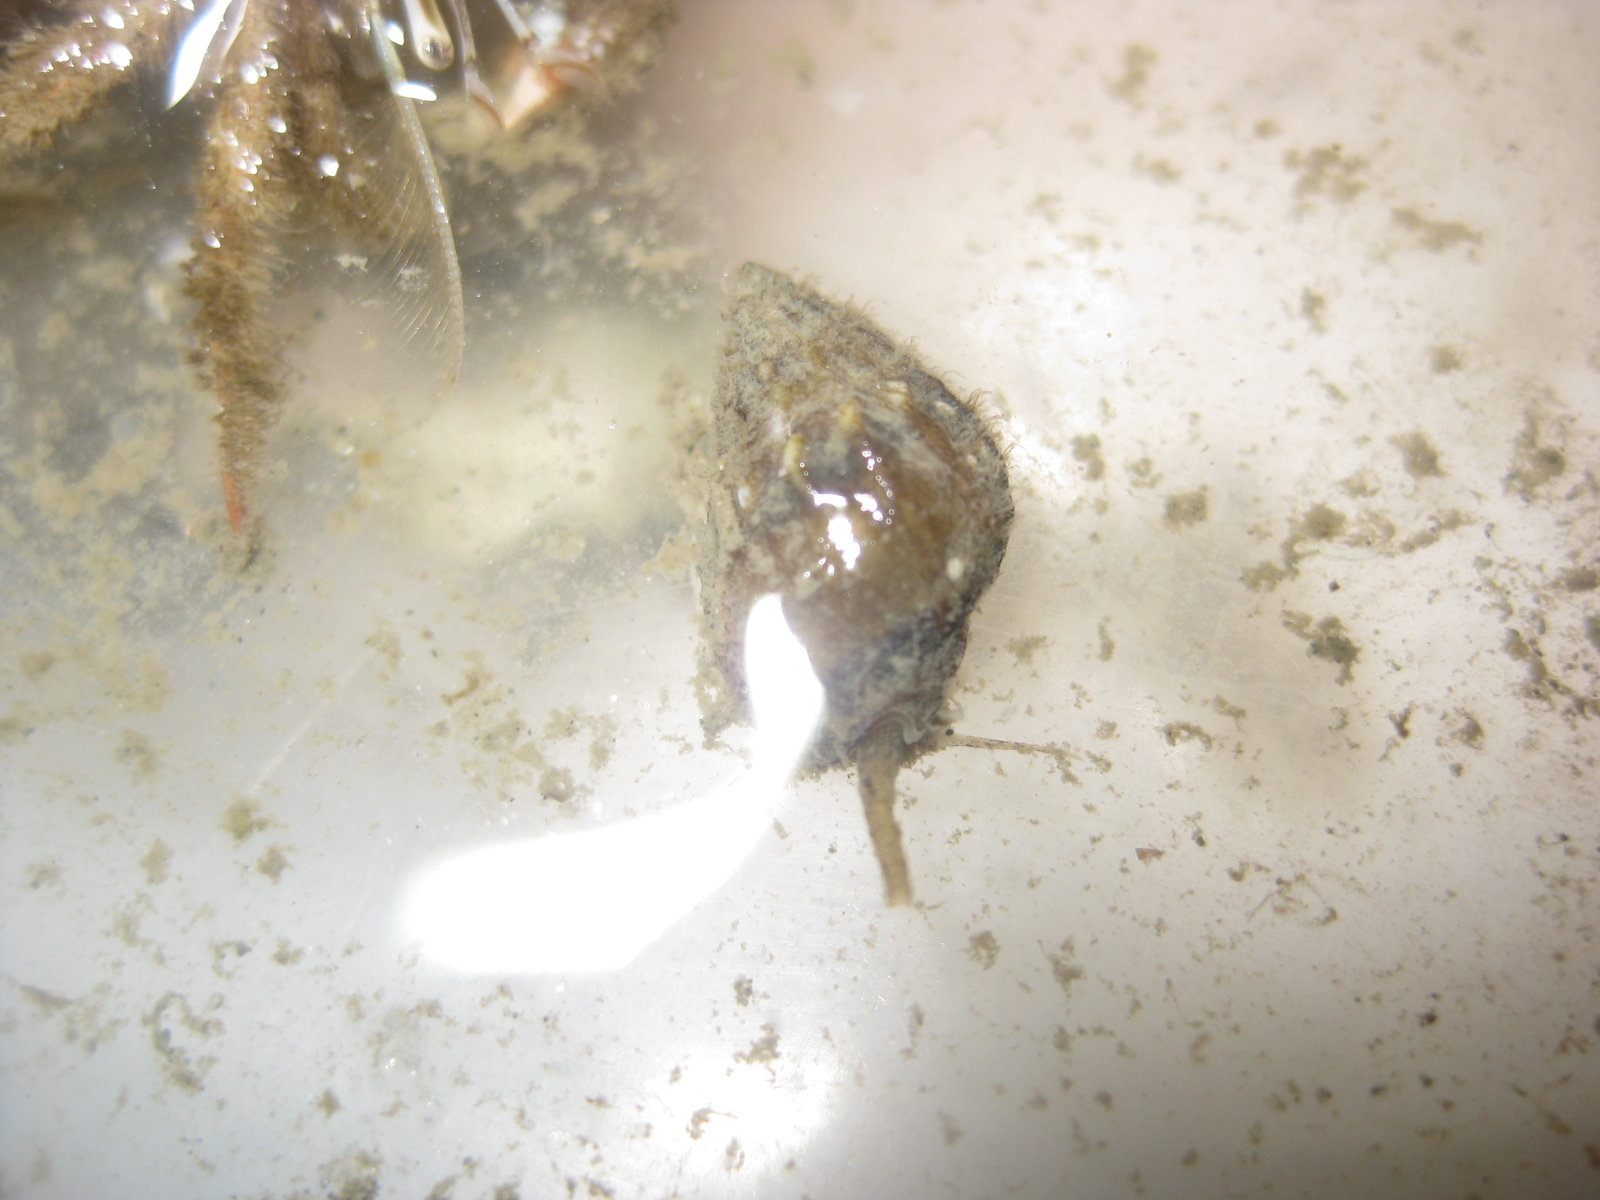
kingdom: Animalia
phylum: Mollusca
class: Gastropoda
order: Neogastropoda
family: Nassariidae
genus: Tritia
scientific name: Tritia burchardi
